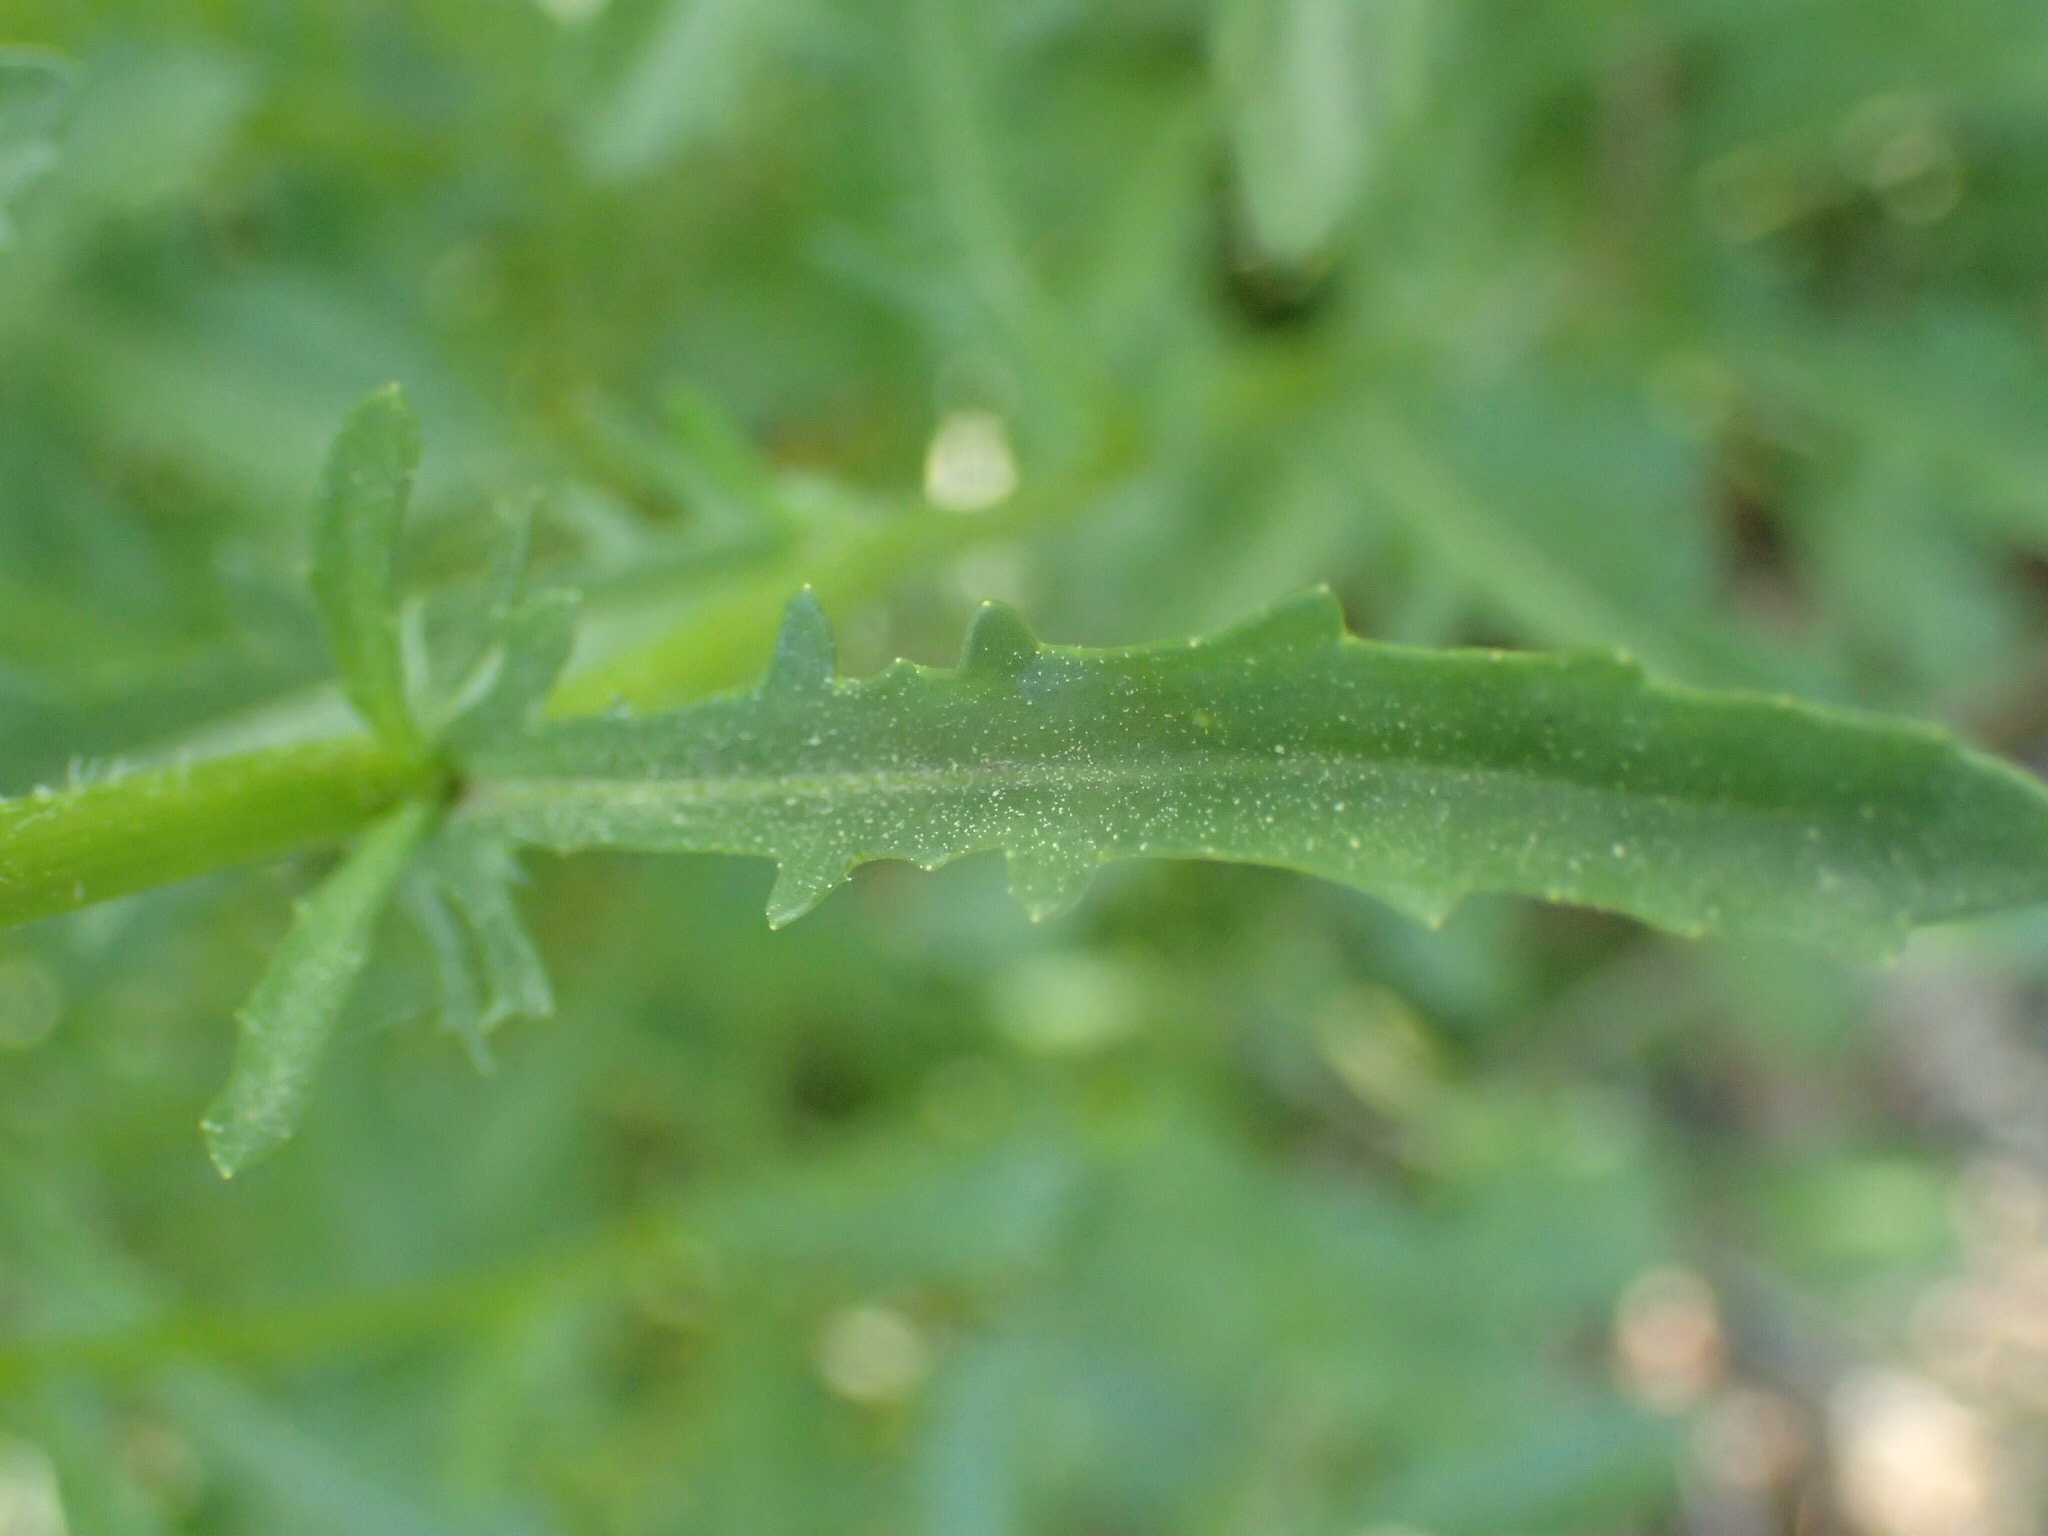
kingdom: Plantae
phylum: Tracheophyta
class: Magnoliopsida
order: Asterales
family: Asteraceae
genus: Leucanthemum
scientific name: Leucanthemum vulgare
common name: Oxeye daisy
